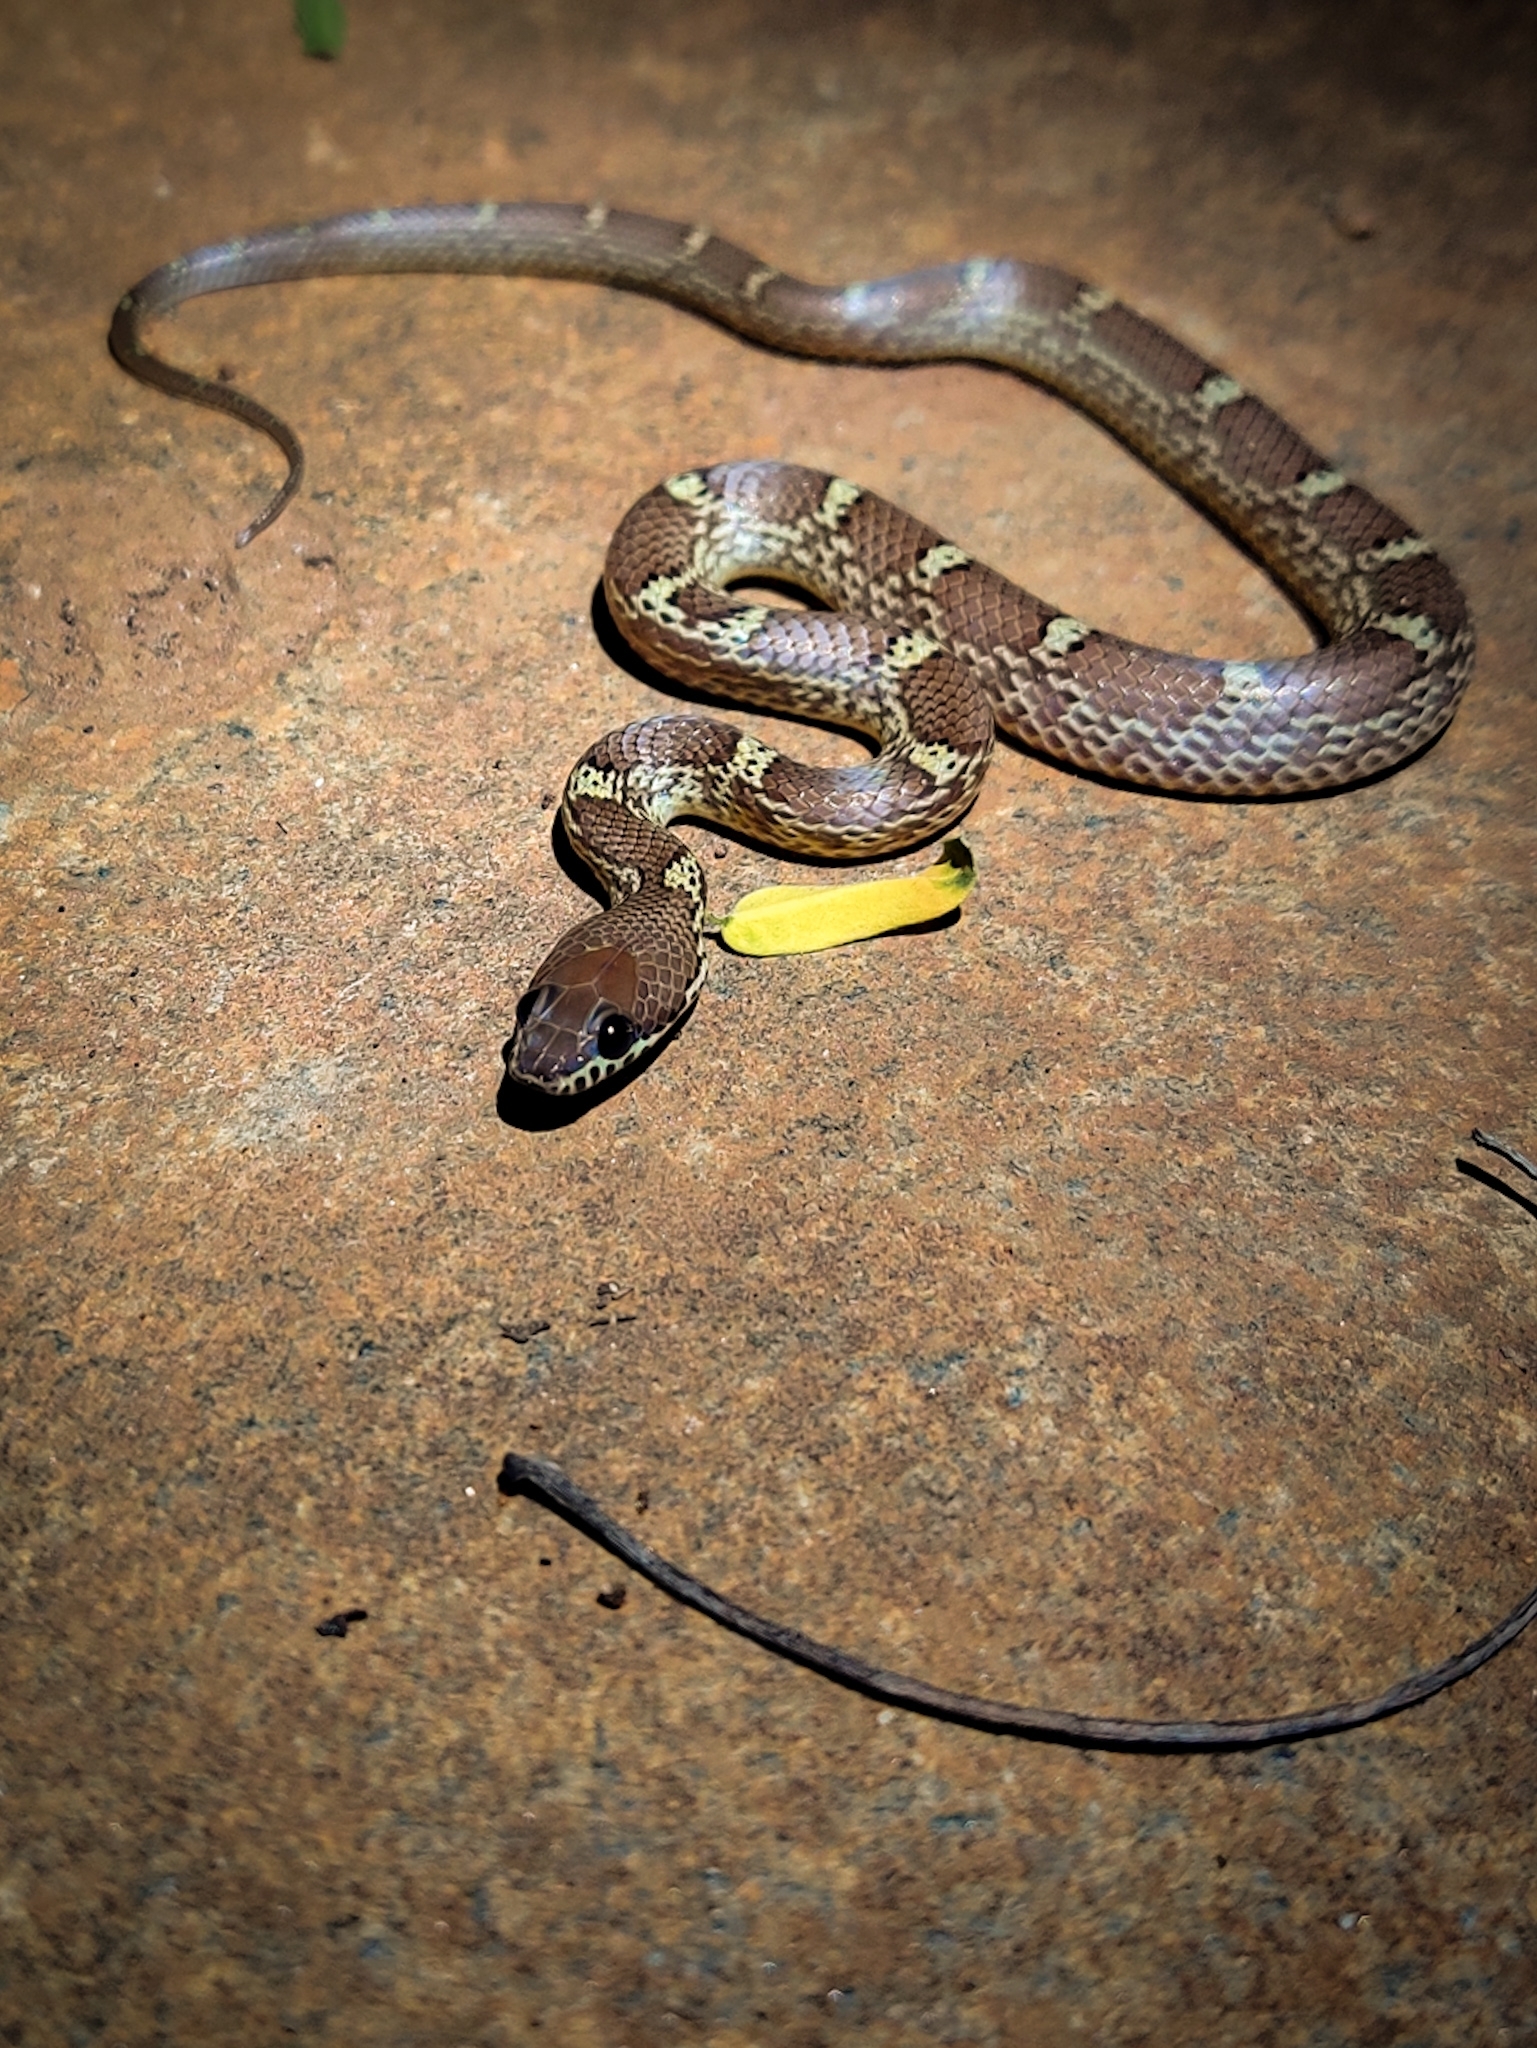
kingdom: Animalia
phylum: Chordata
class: Squamata
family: Colubridae
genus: Lycodon
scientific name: Lycodon fasciolatus
